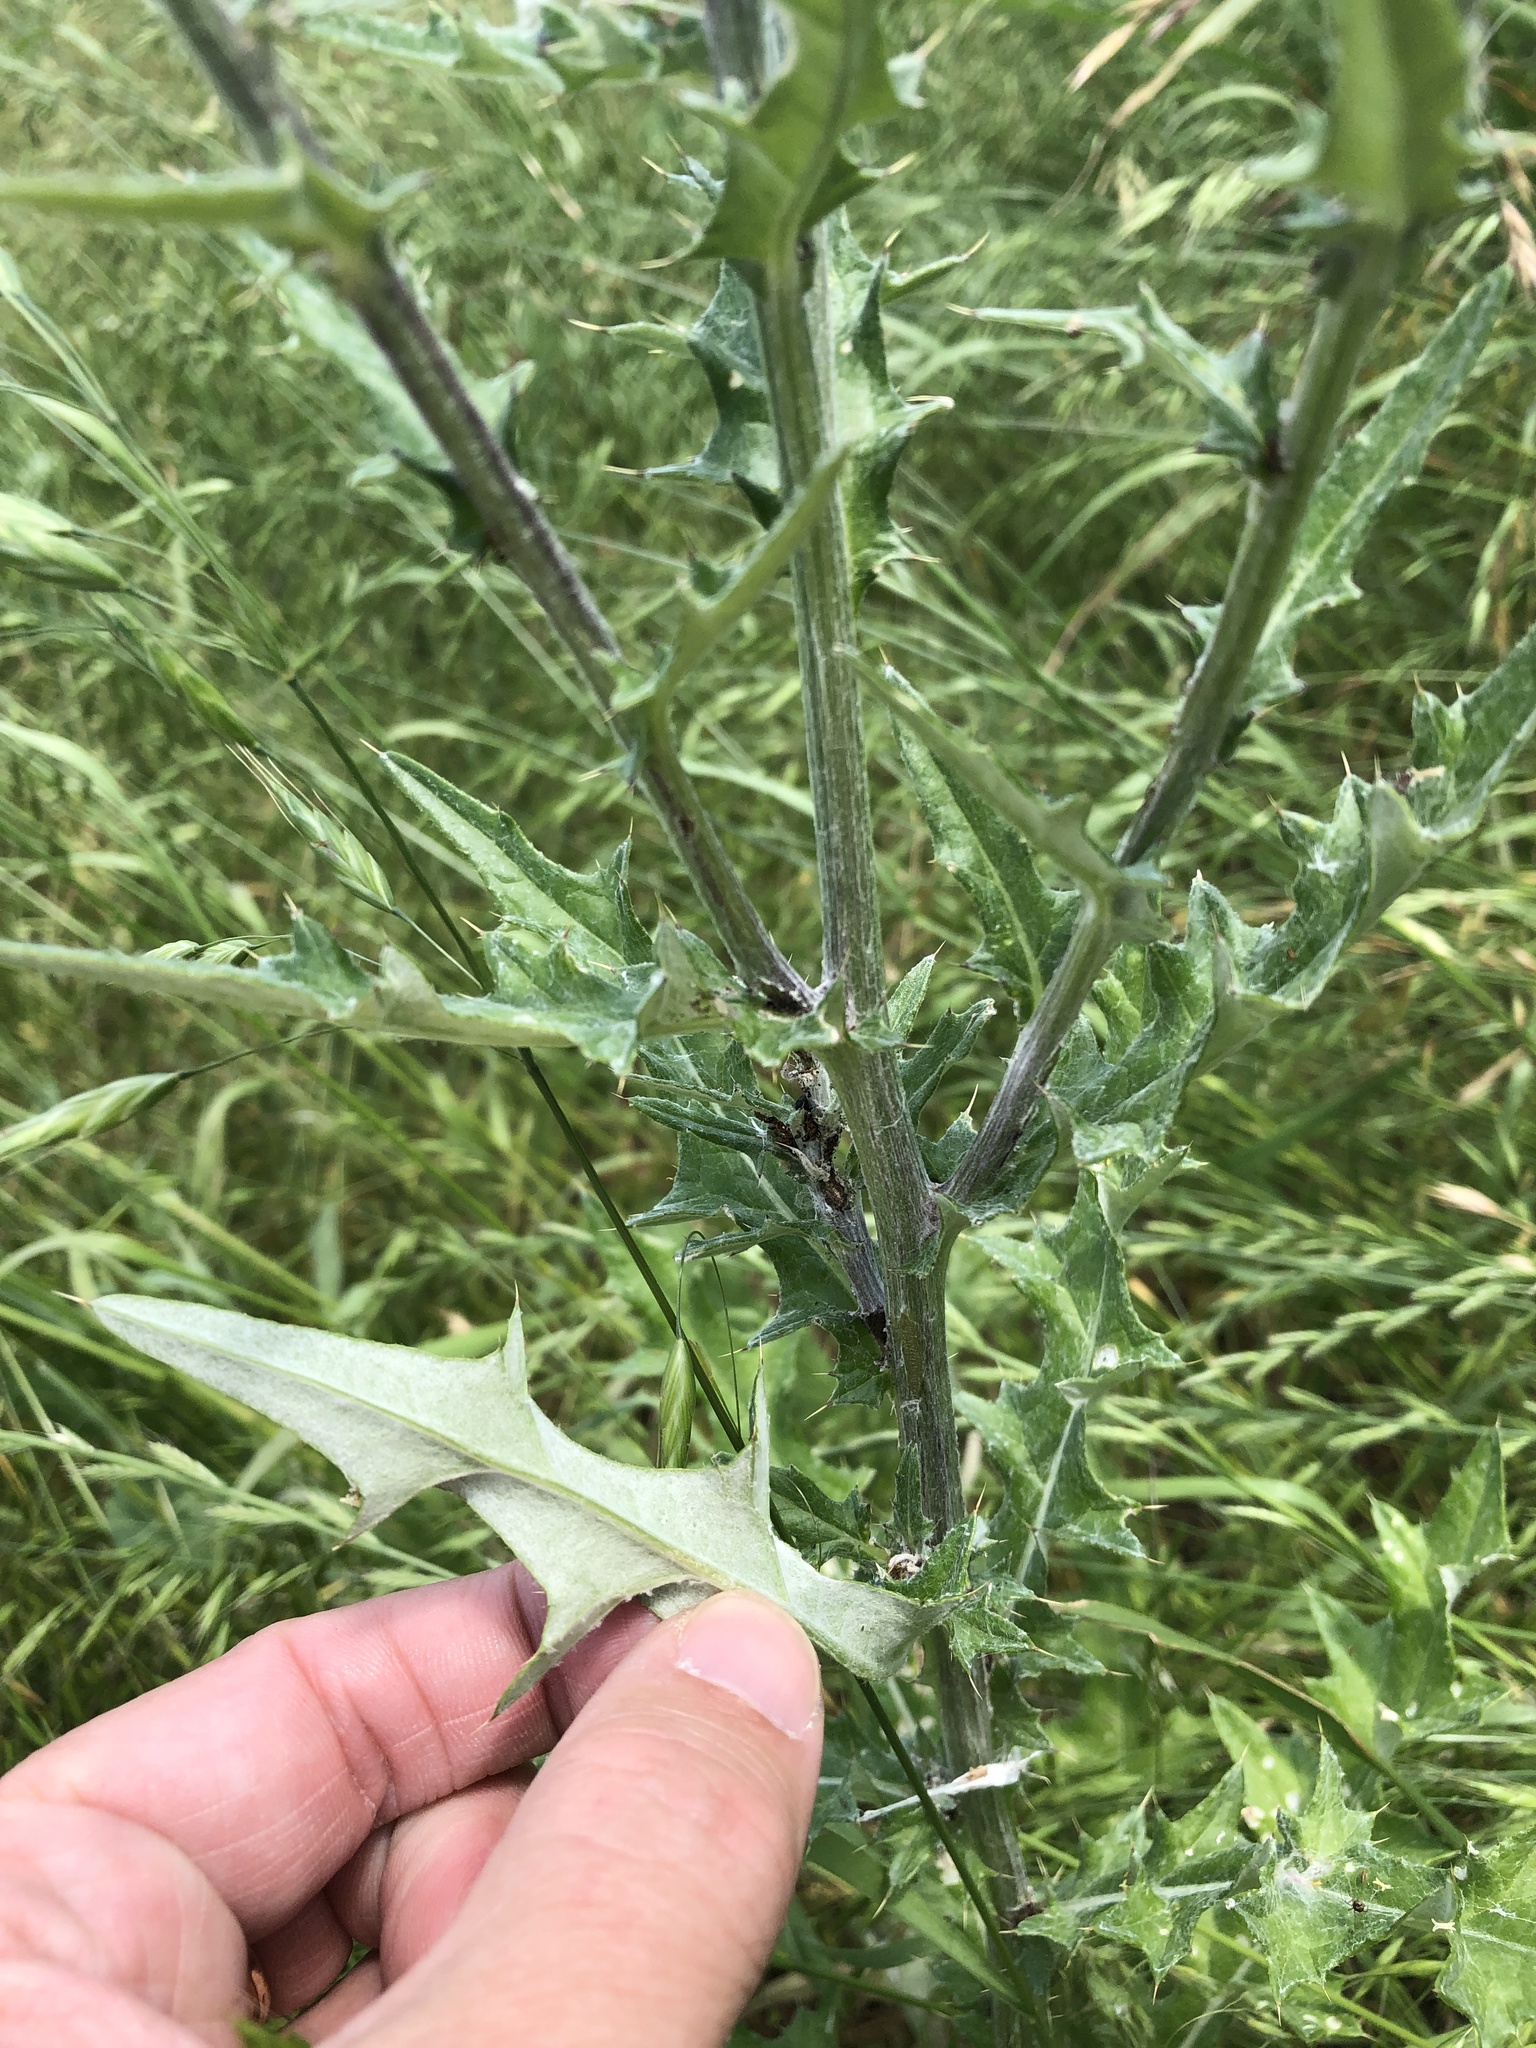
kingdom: Plantae
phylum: Tracheophyta
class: Magnoliopsida
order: Asterales
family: Asteraceae
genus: Cirsium
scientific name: Cirsium texanum
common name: Texas purple thistle
